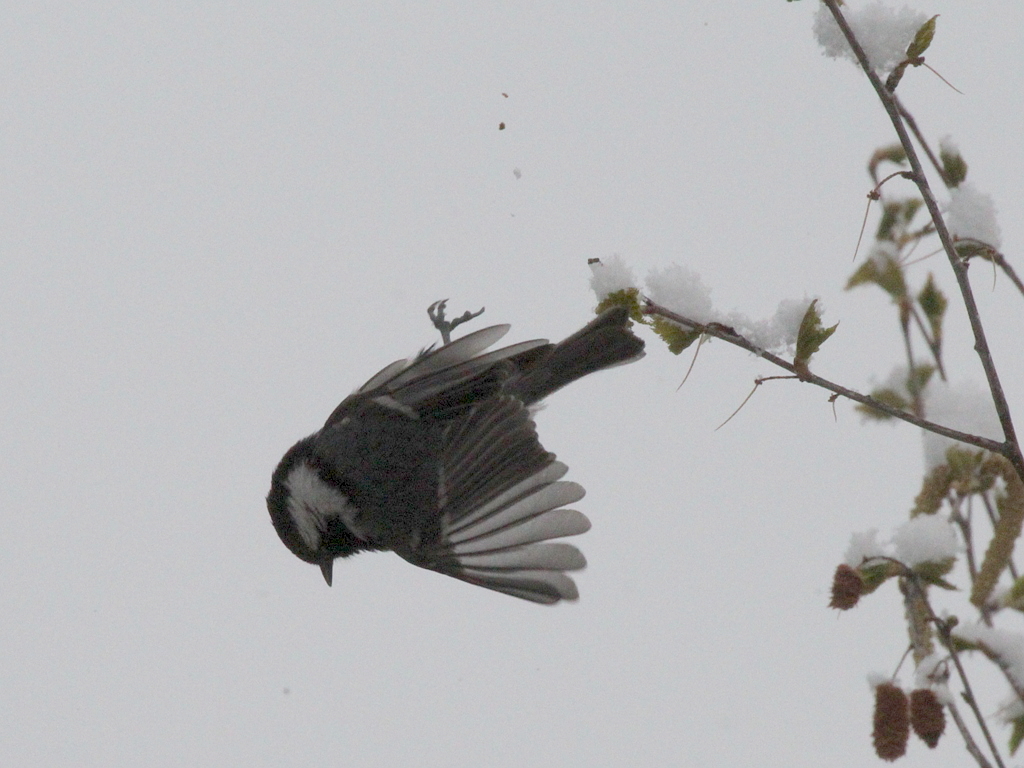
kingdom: Animalia
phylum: Chordata
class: Aves
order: Passeriformes
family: Paridae
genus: Periparus
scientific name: Periparus ater
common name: Coal tit
